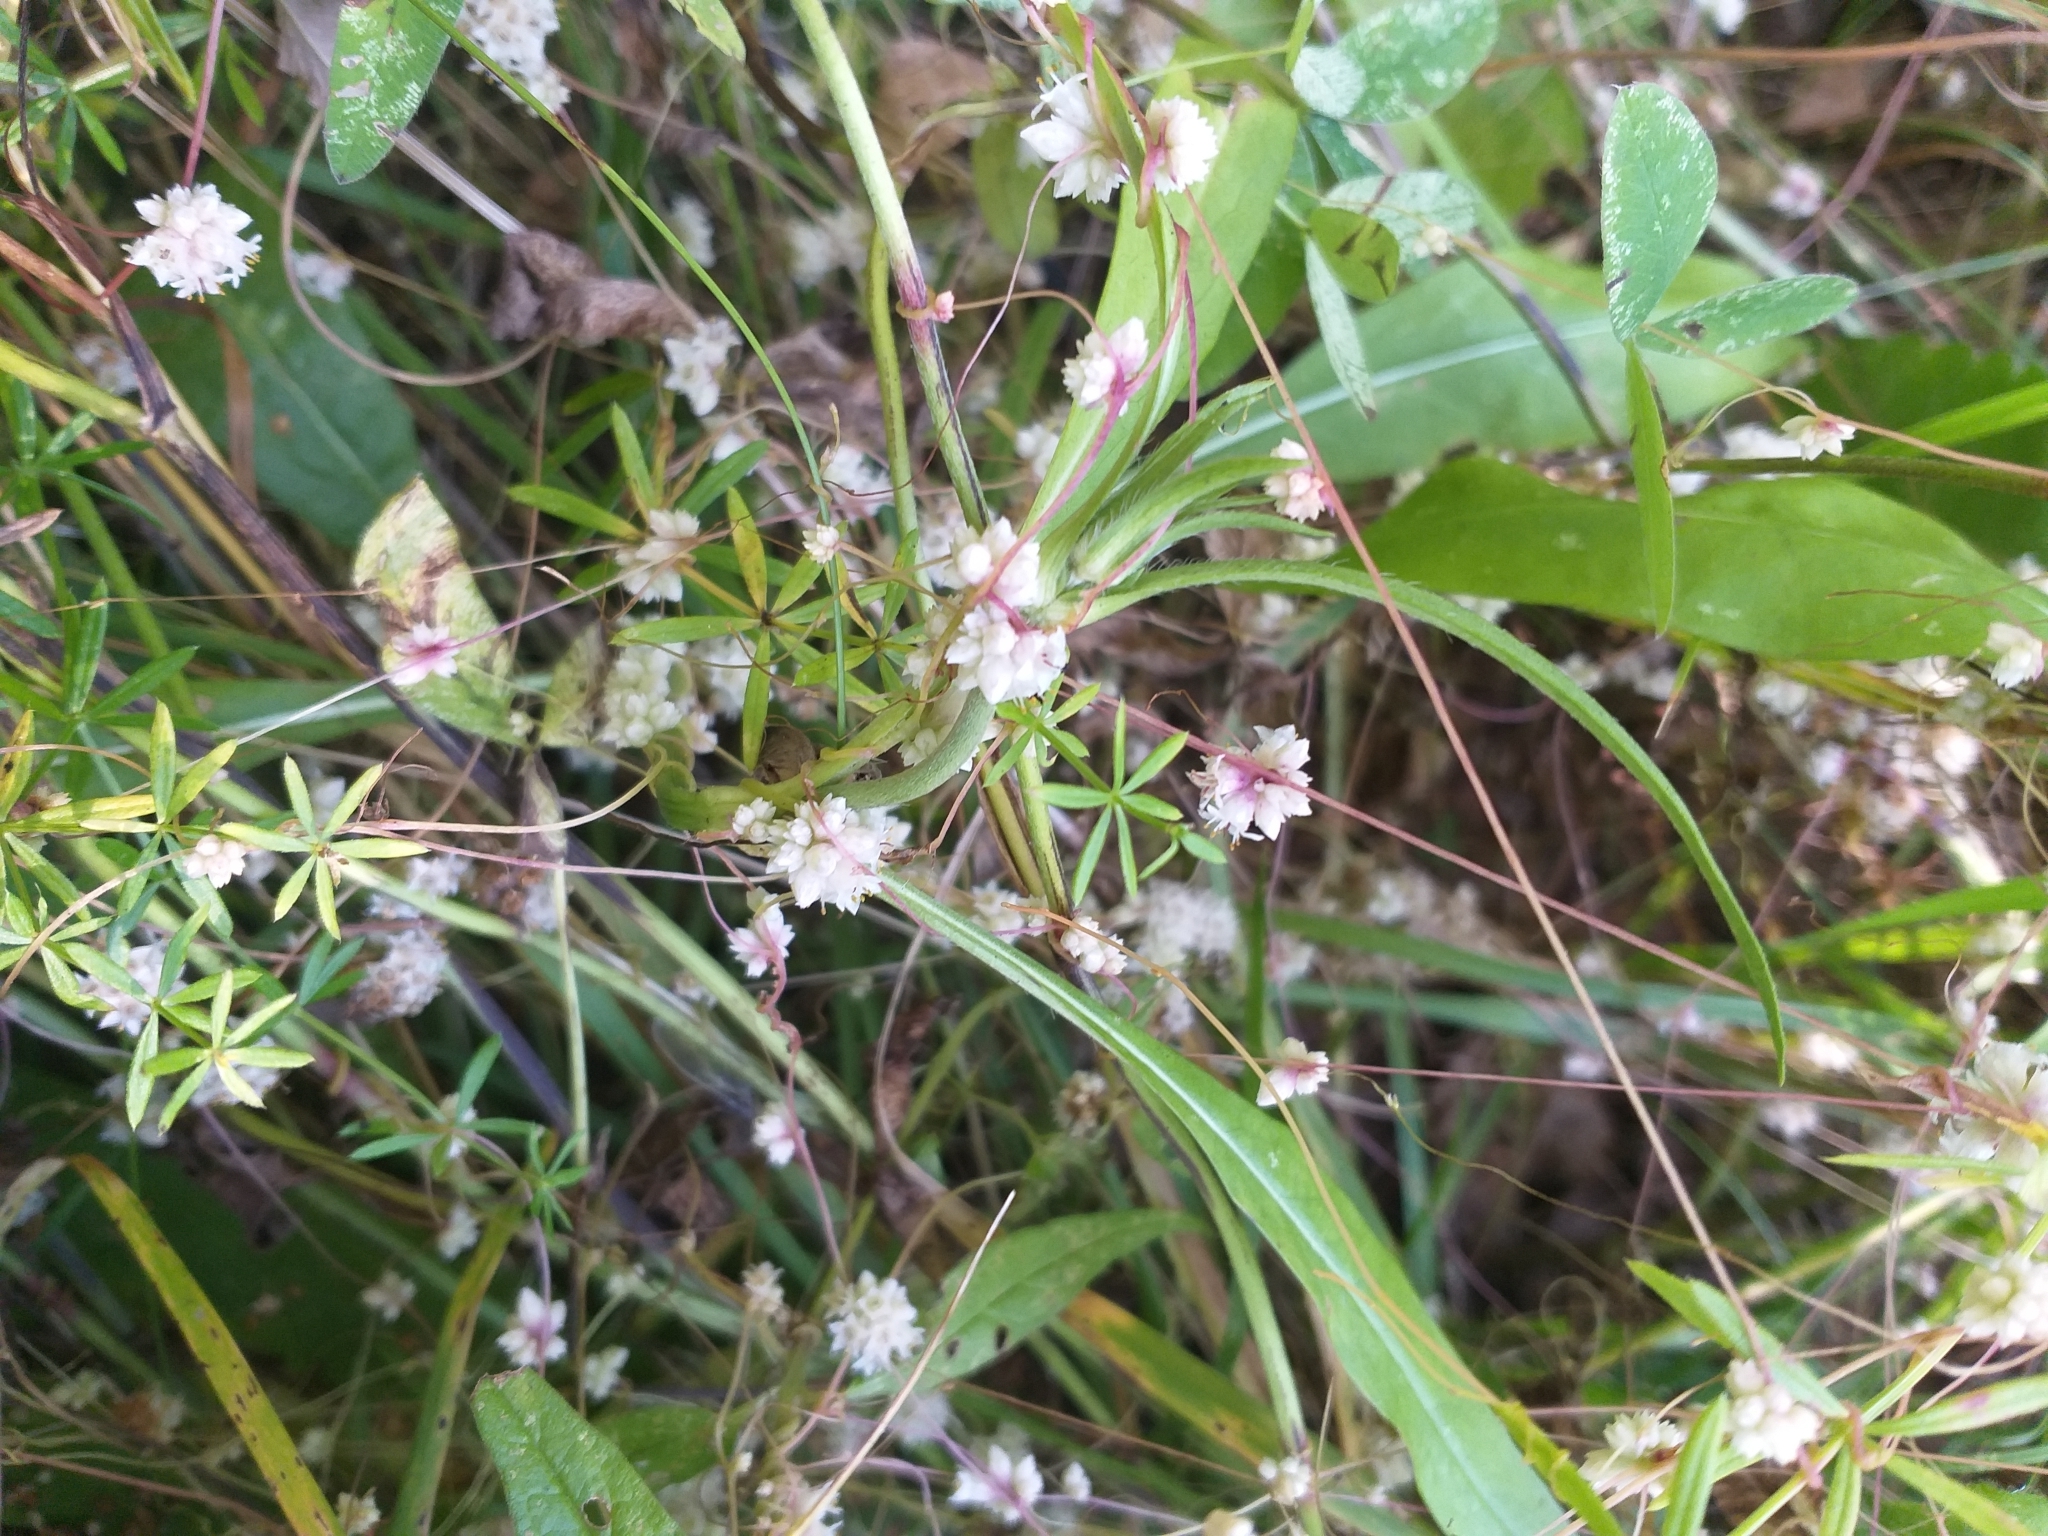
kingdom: Plantae
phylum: Tracheophyta
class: Magnoliopsida
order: Solanales
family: Convolvulaceae
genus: Cuscuta
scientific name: Cuscuta epithymum
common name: Clover dodder
